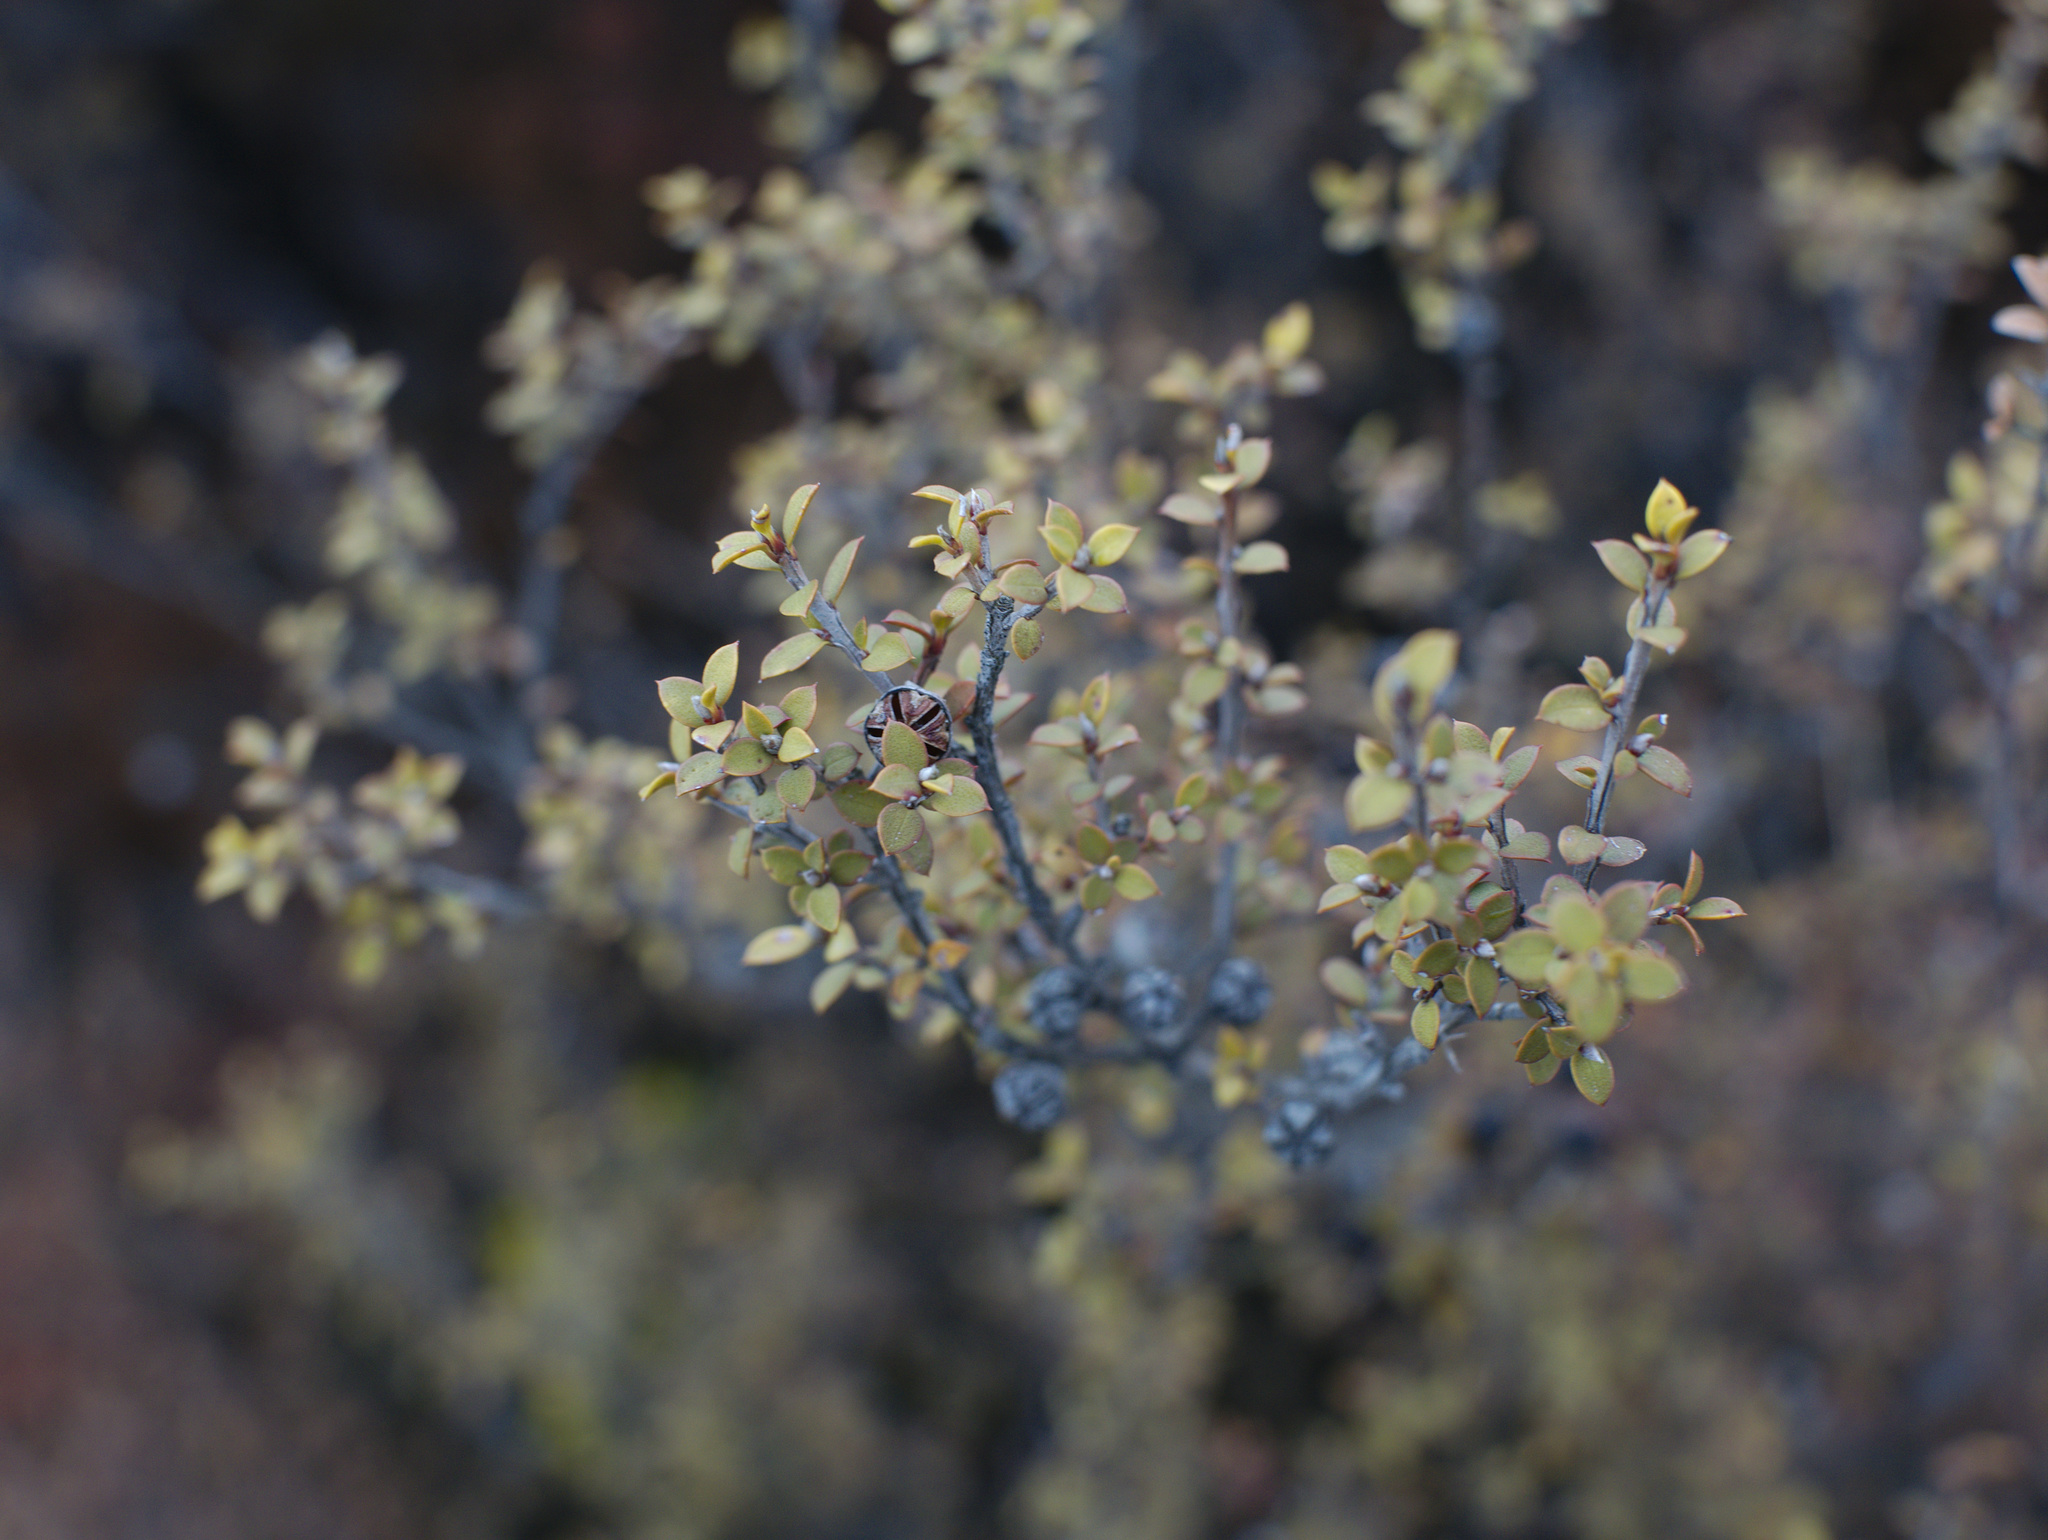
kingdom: Plantae
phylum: Tracheophyta
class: Magnoliopsida
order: Myrtales
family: Myrtaceae
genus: Leptospermum
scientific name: Leptospermum scoparium
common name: Broom tea-tree
